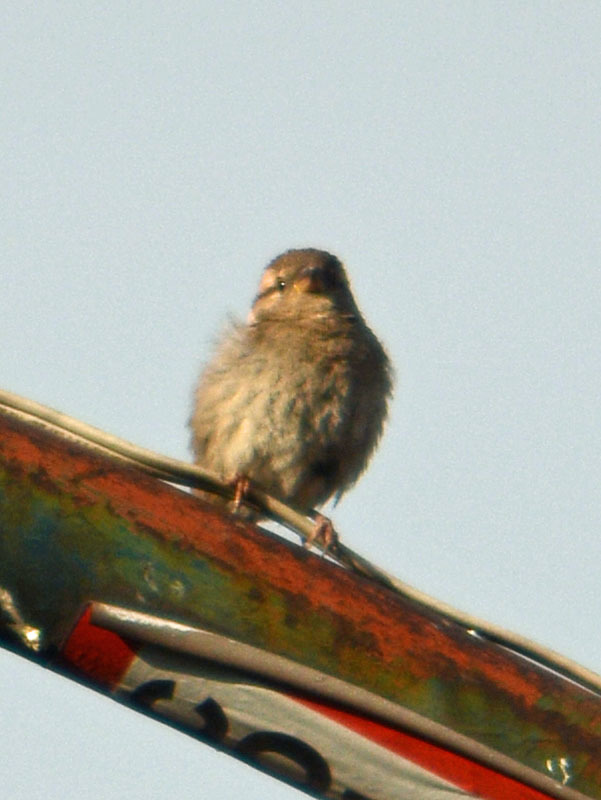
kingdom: Animalia
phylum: Chordata
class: Aves
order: Passeriformes
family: Passeridae
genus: Passer
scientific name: Passer domesticus
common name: House sparrow
